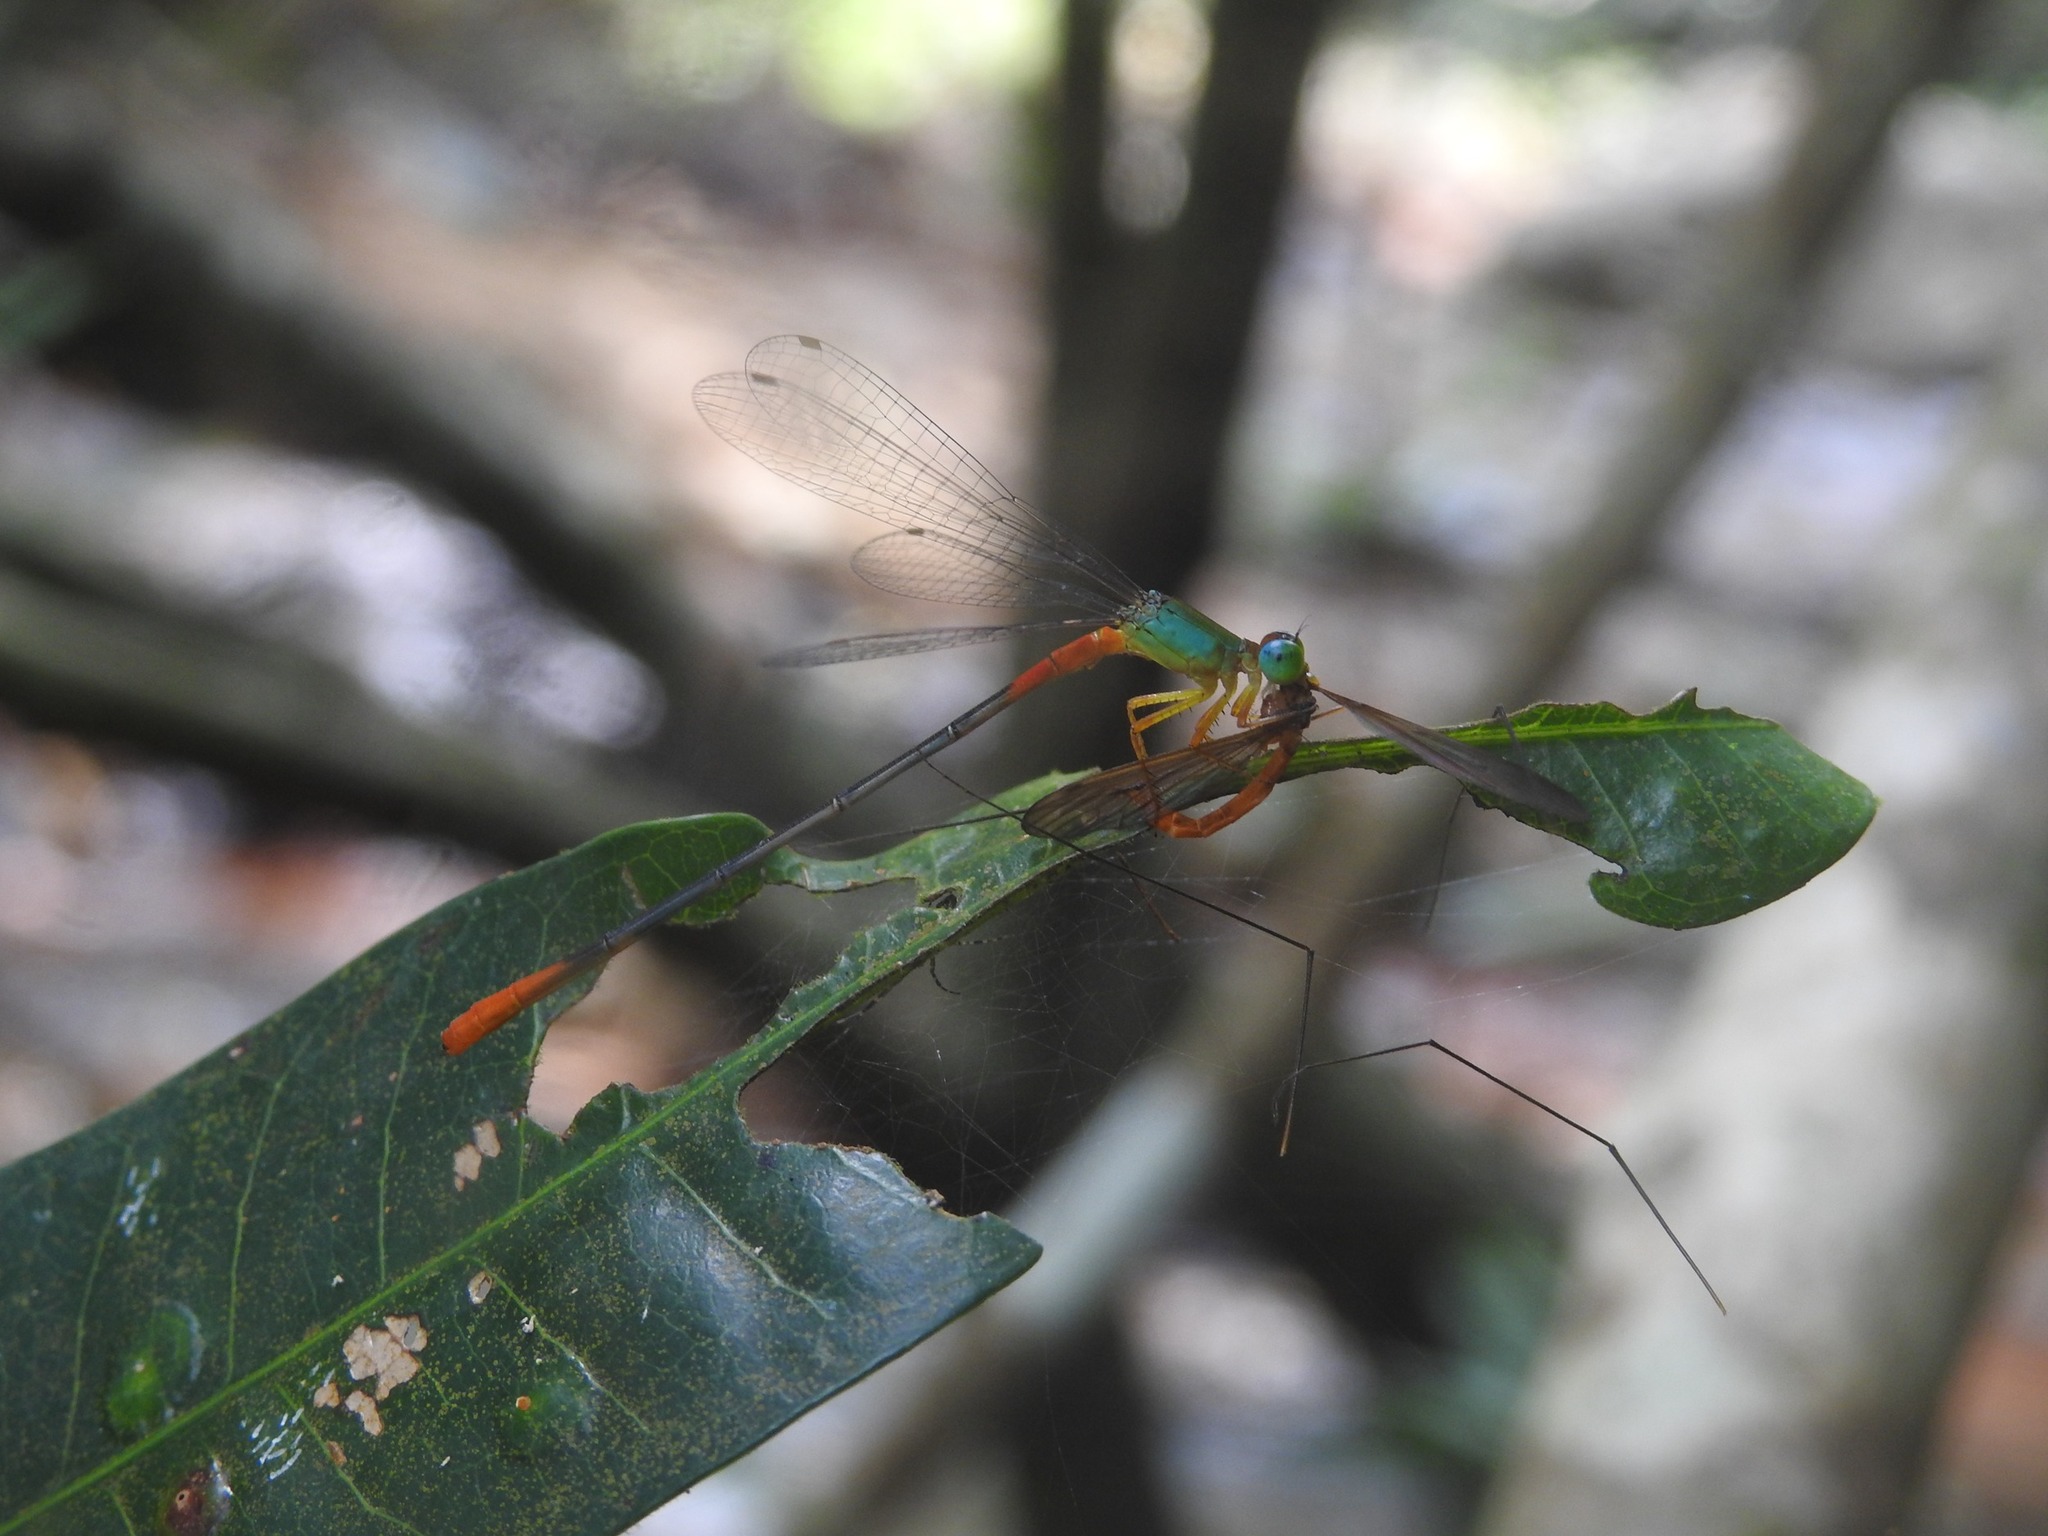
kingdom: Animalia
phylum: Arthropoda
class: Insecta
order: Odonata
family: Coenagrionidae
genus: Ceriagrion
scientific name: Ceriagrion cerinorubellum
